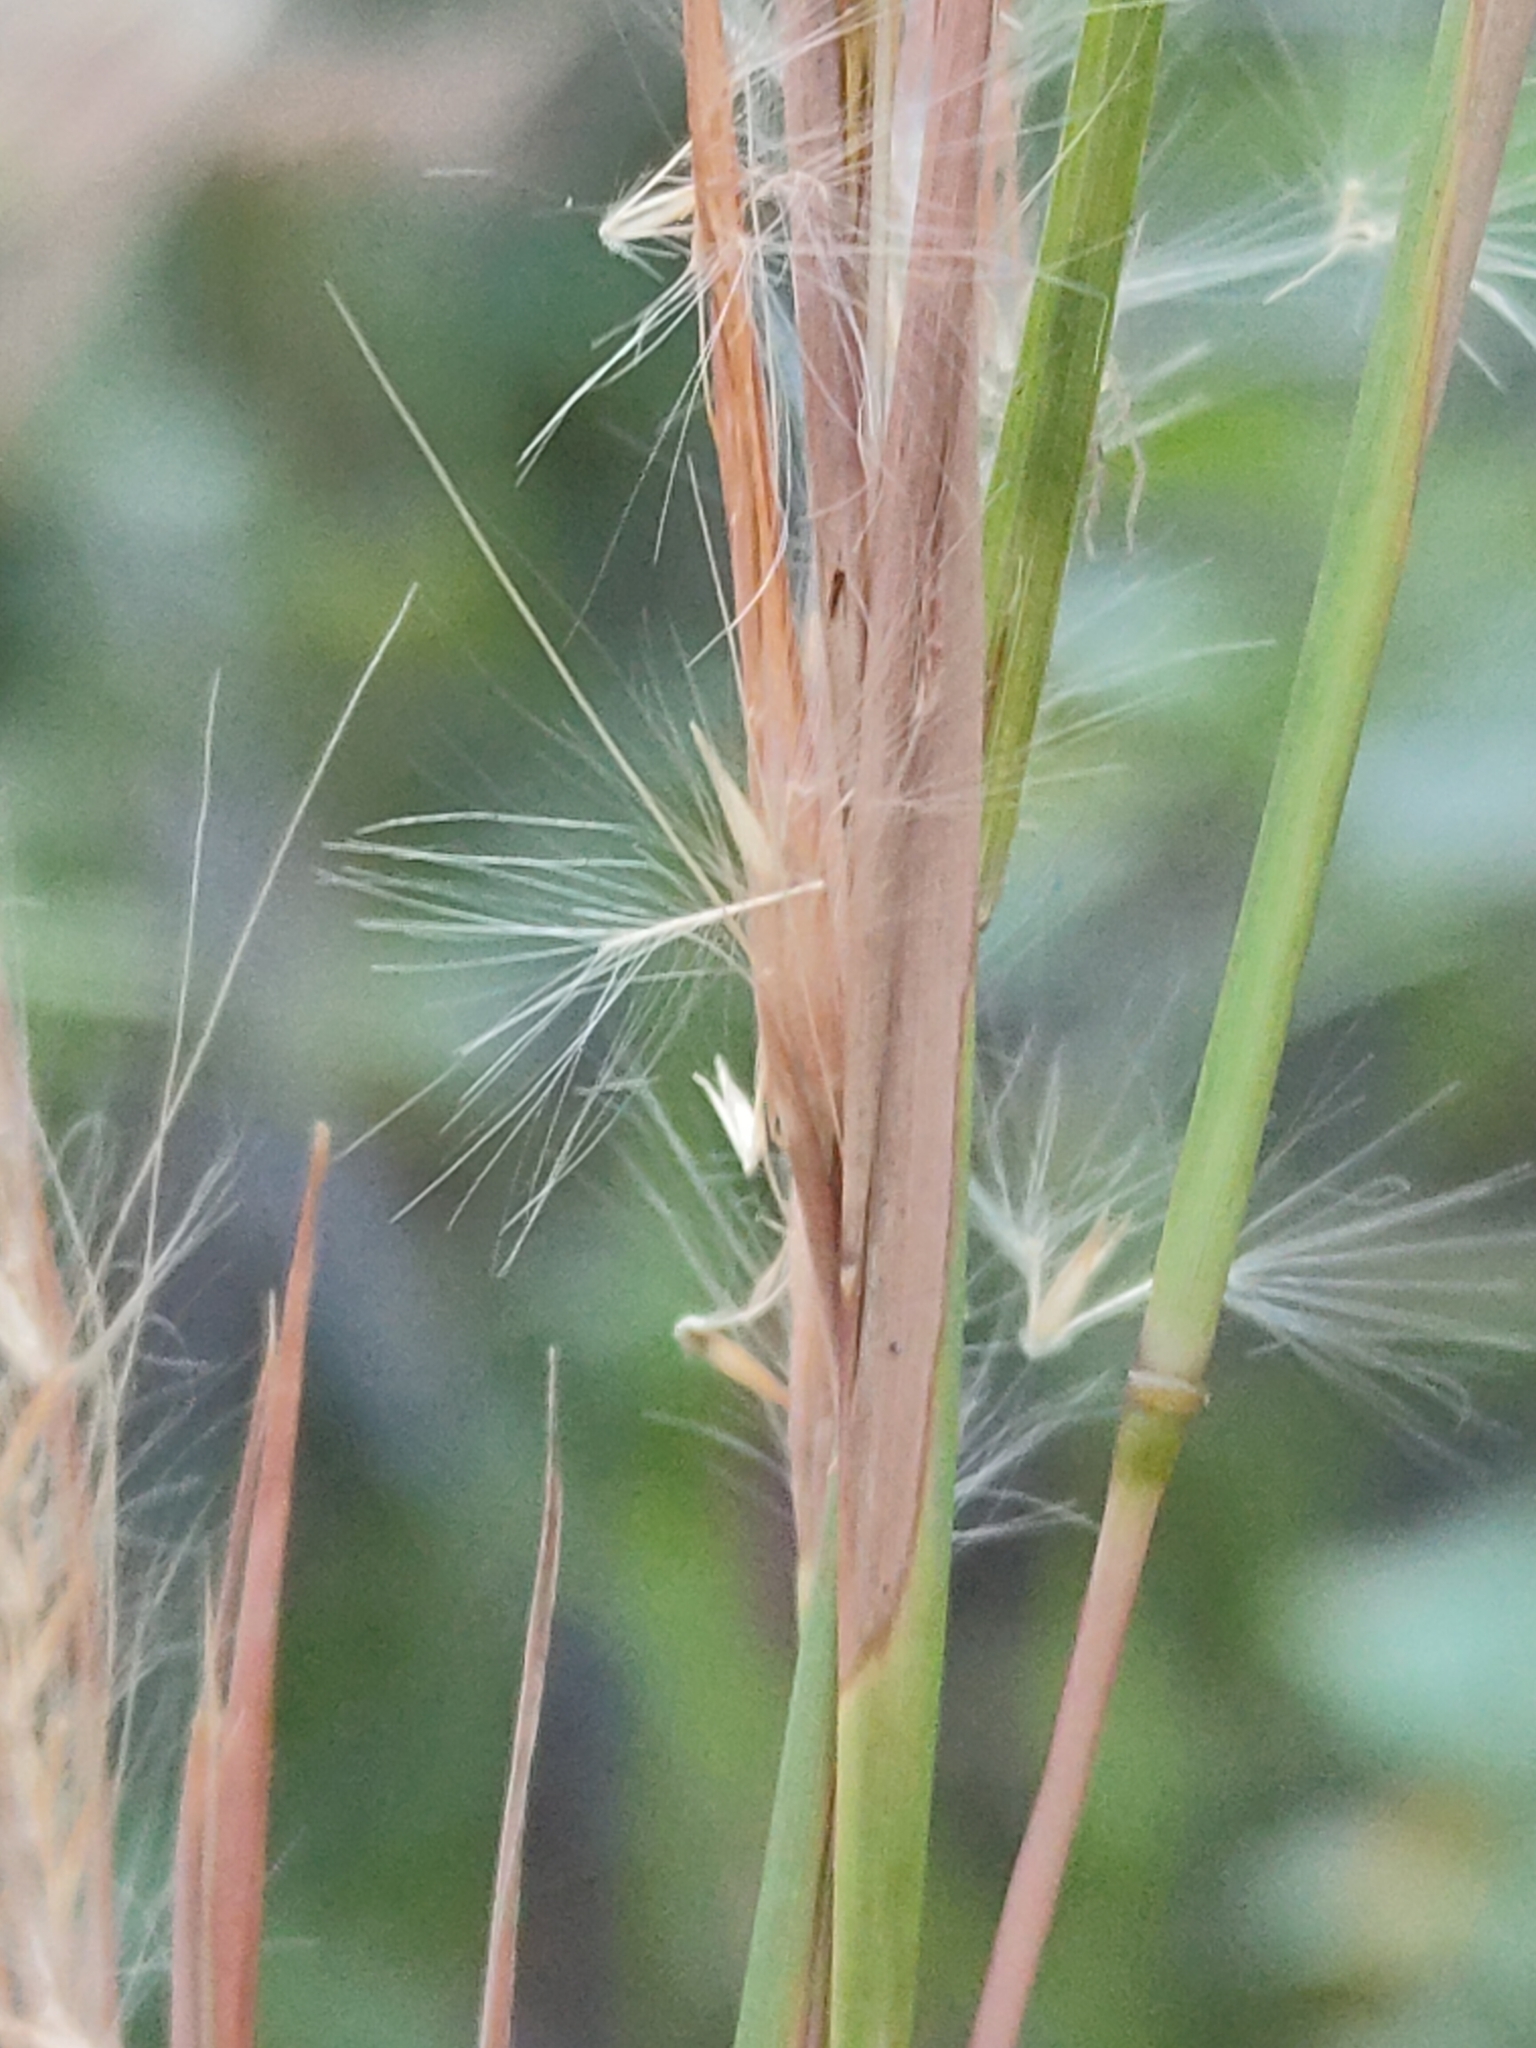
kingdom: Plantae
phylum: Tracheophyta
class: Liliopsida
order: Poales
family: Poaceae
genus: Andropogon
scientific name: Andropogon virginicus
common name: Broomsedge bluestem
